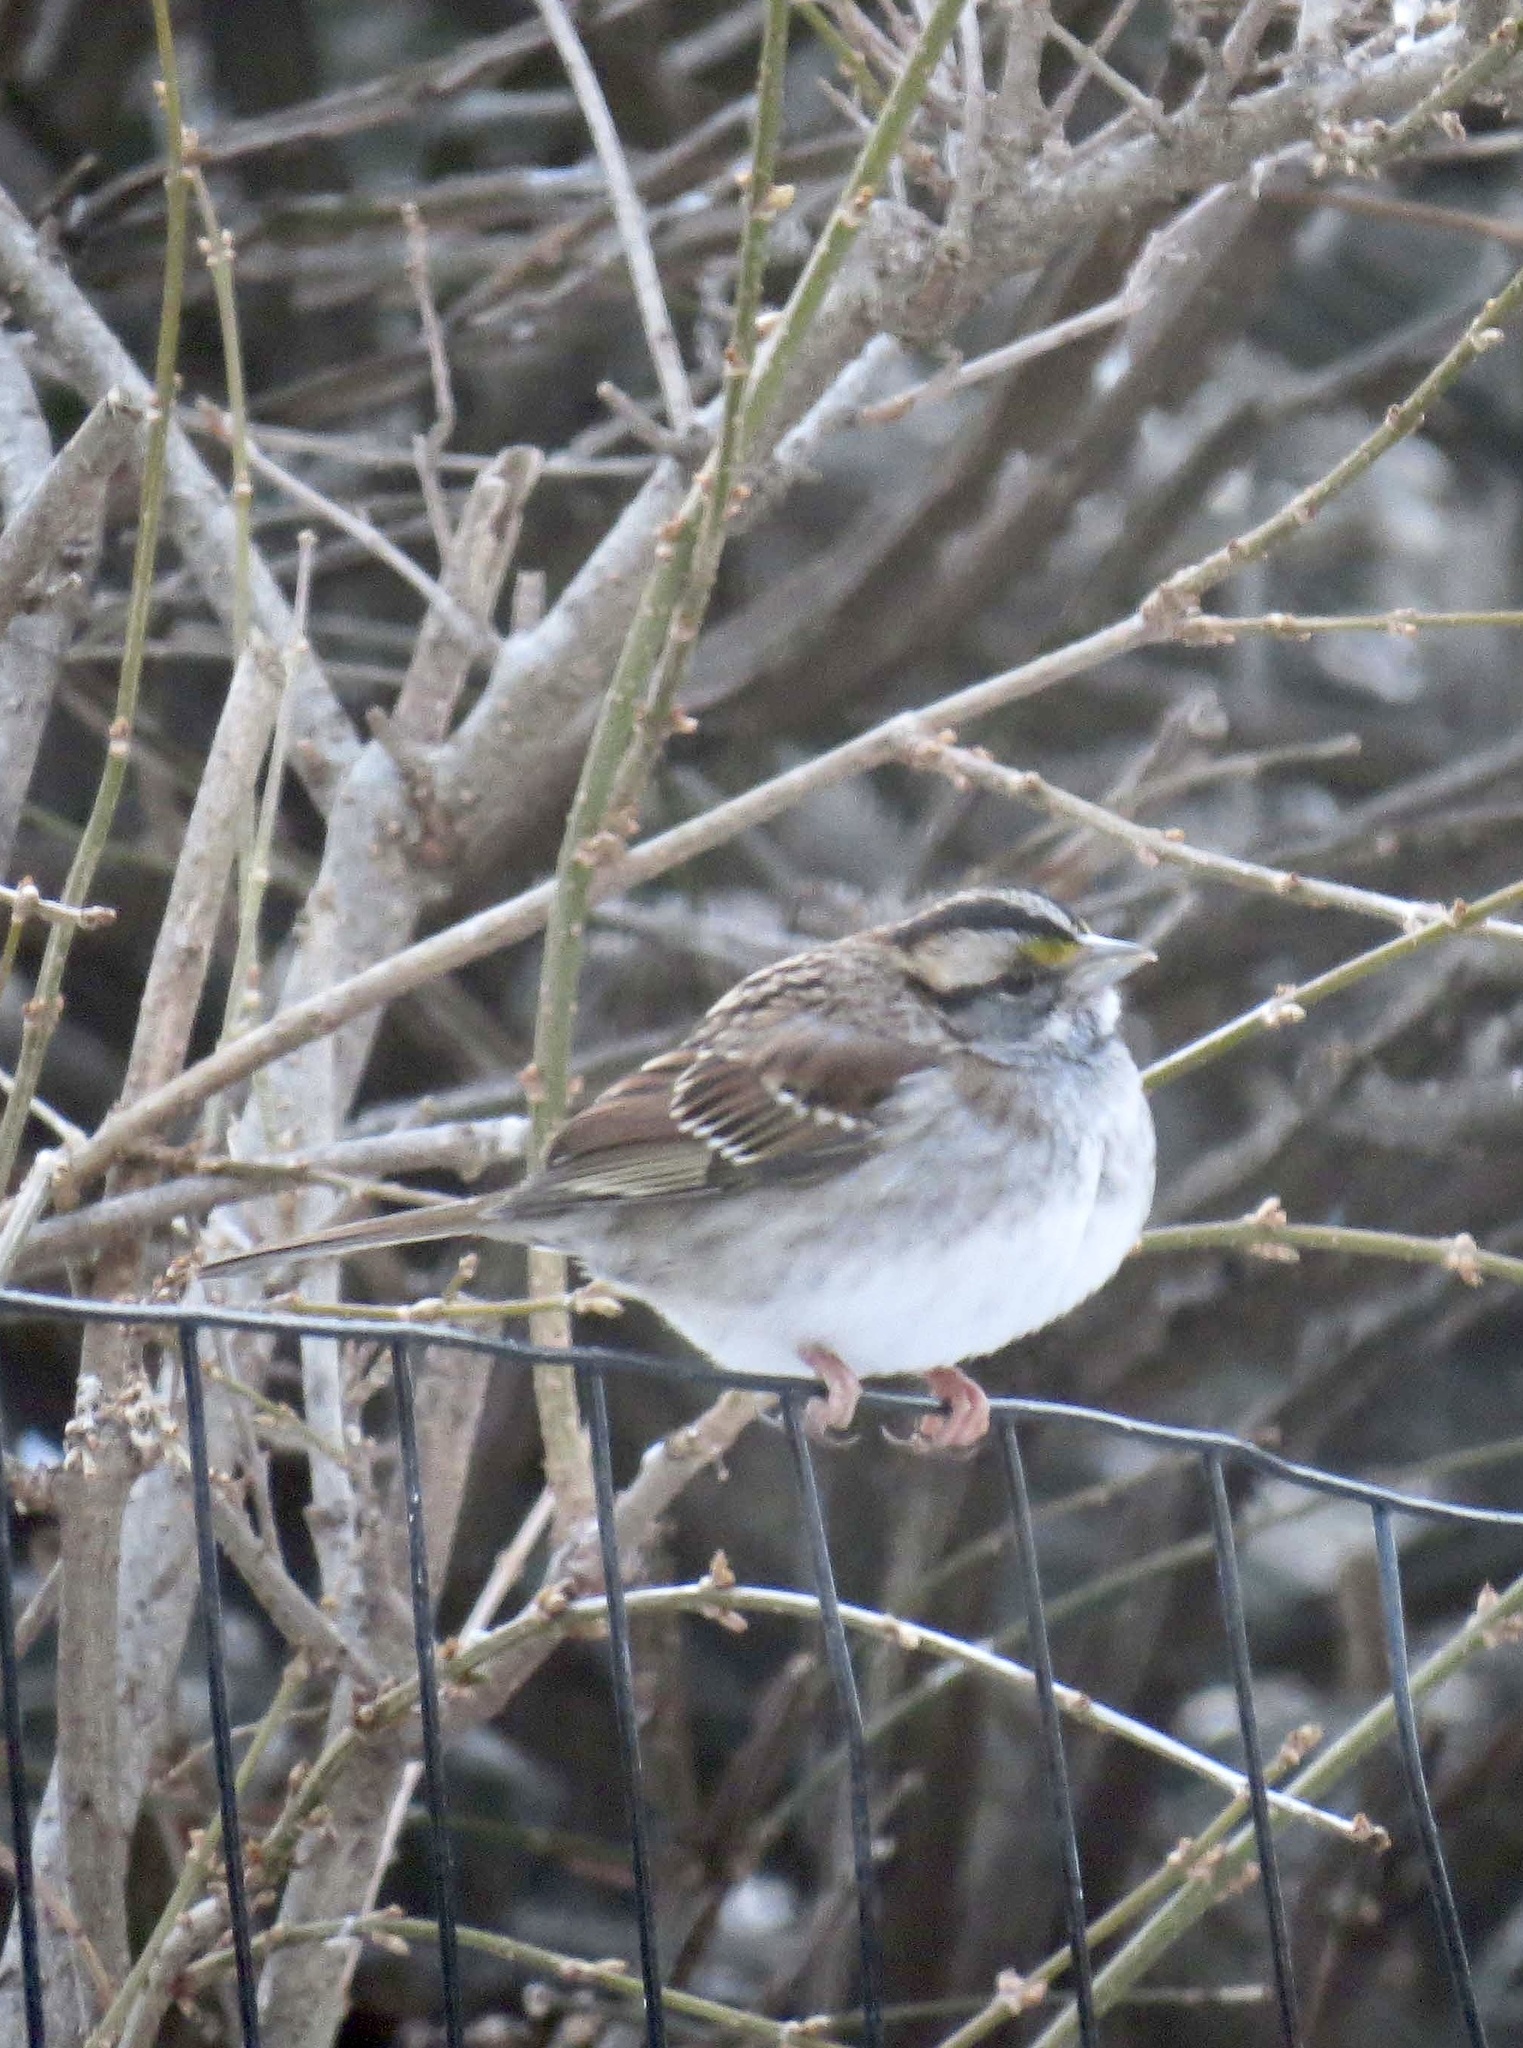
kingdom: Animalia
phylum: Chordata
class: Aves
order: Passeriformes
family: Passerellidae
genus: Zonotrichia
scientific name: Zonotrichia albicollis
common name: White-throated sparrow
